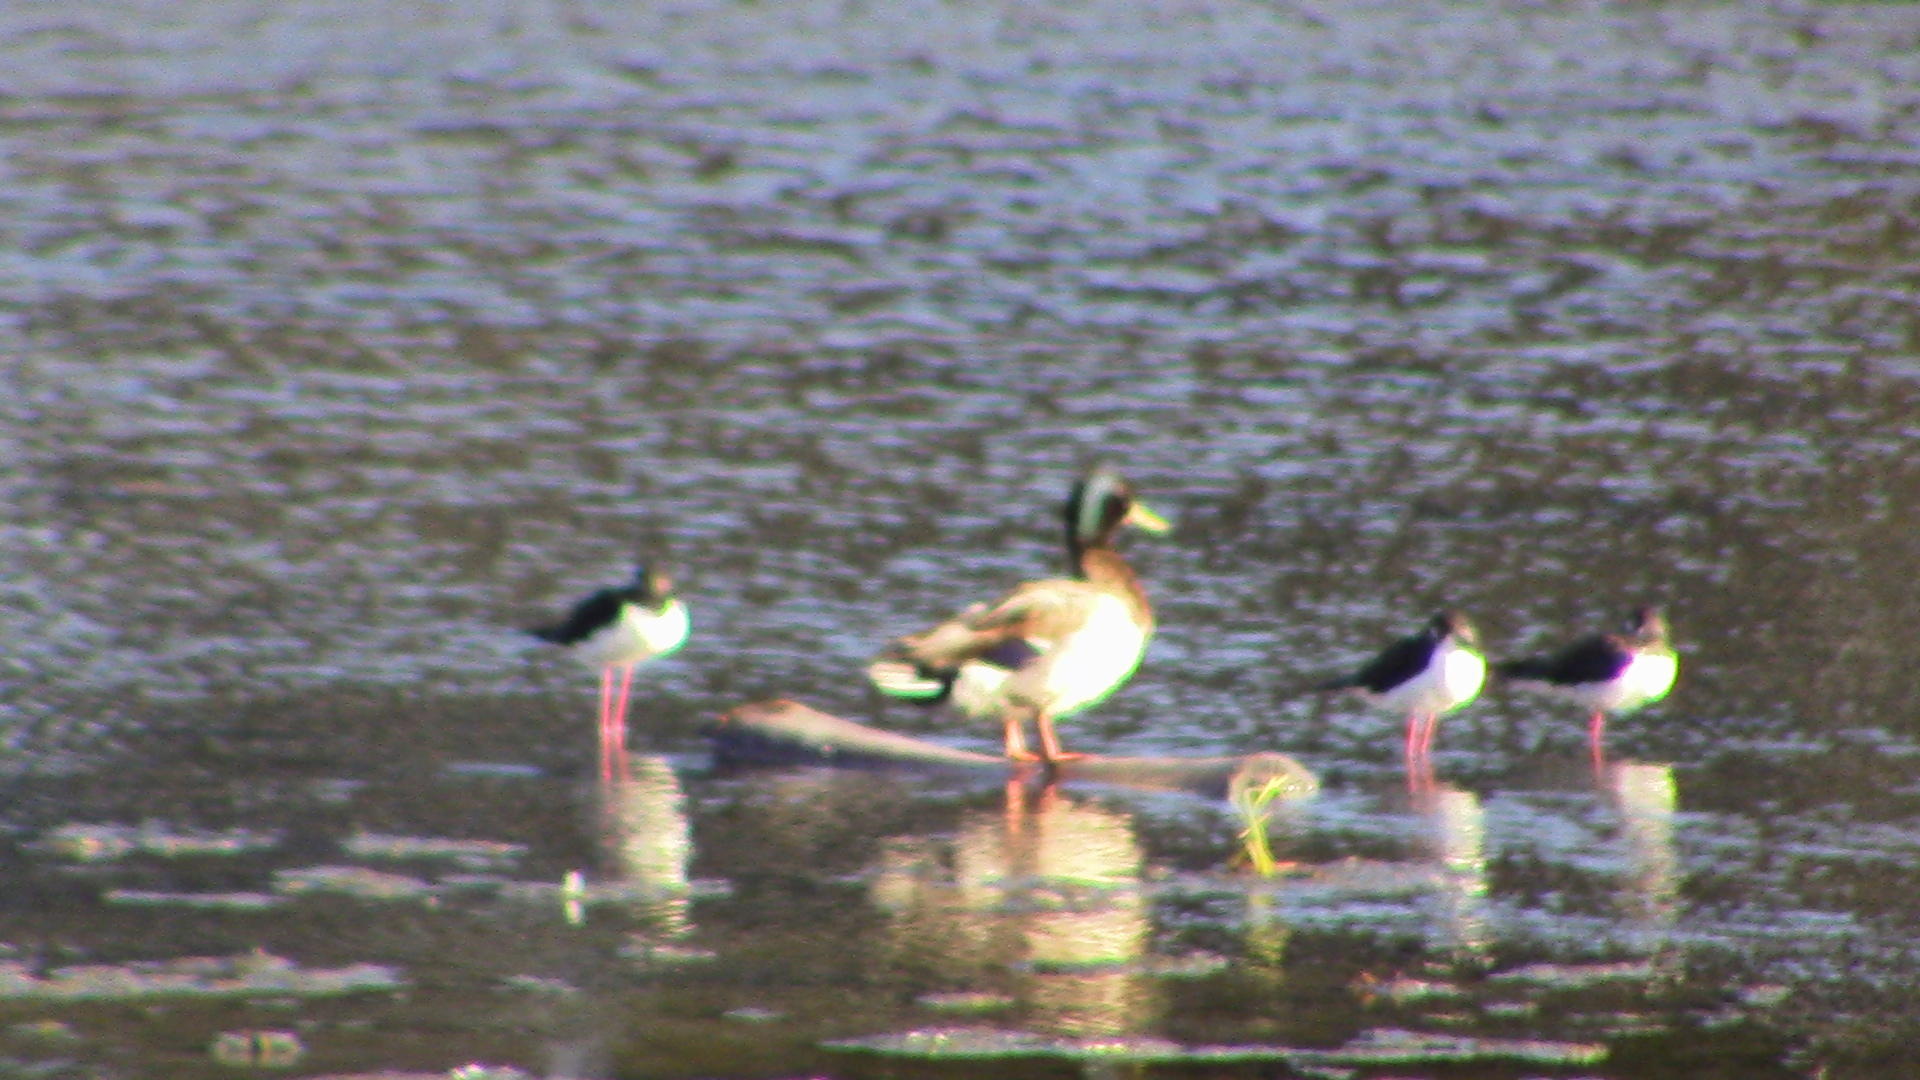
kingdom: Animalia
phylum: Chordata
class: Aves
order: Charadriiformes
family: Recurvirostridae
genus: Himantopus
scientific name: Himantopus mexicanus
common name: Black-necked stilt
